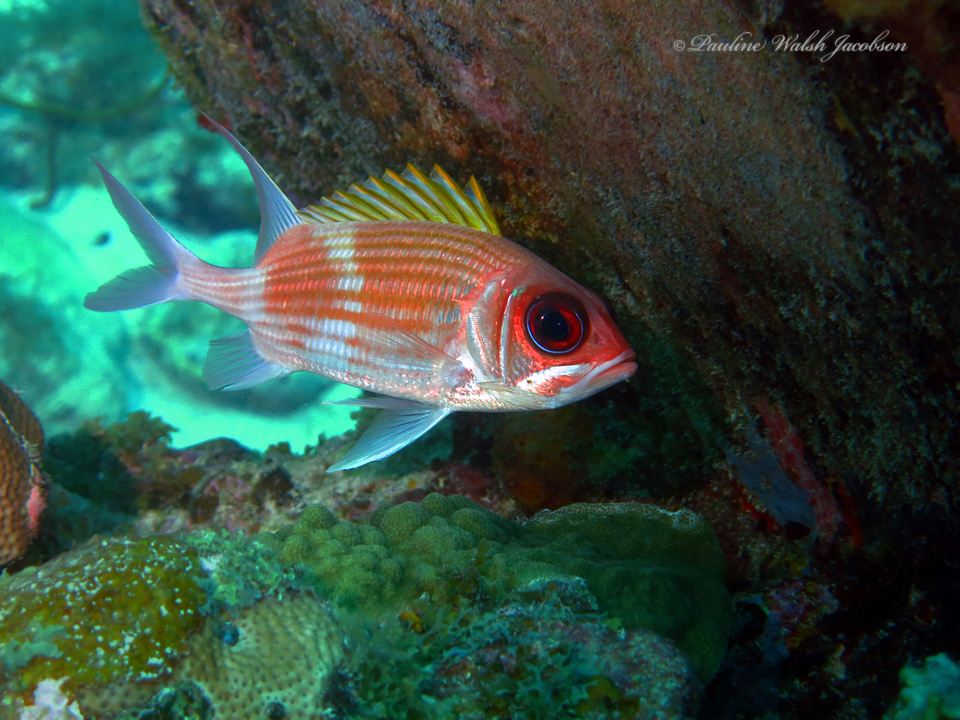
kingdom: Animalia
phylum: Chordata
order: Beryciformes
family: Holocentridae
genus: Holocentrus
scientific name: Holocentrus adscensionis
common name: Squirrelfish
